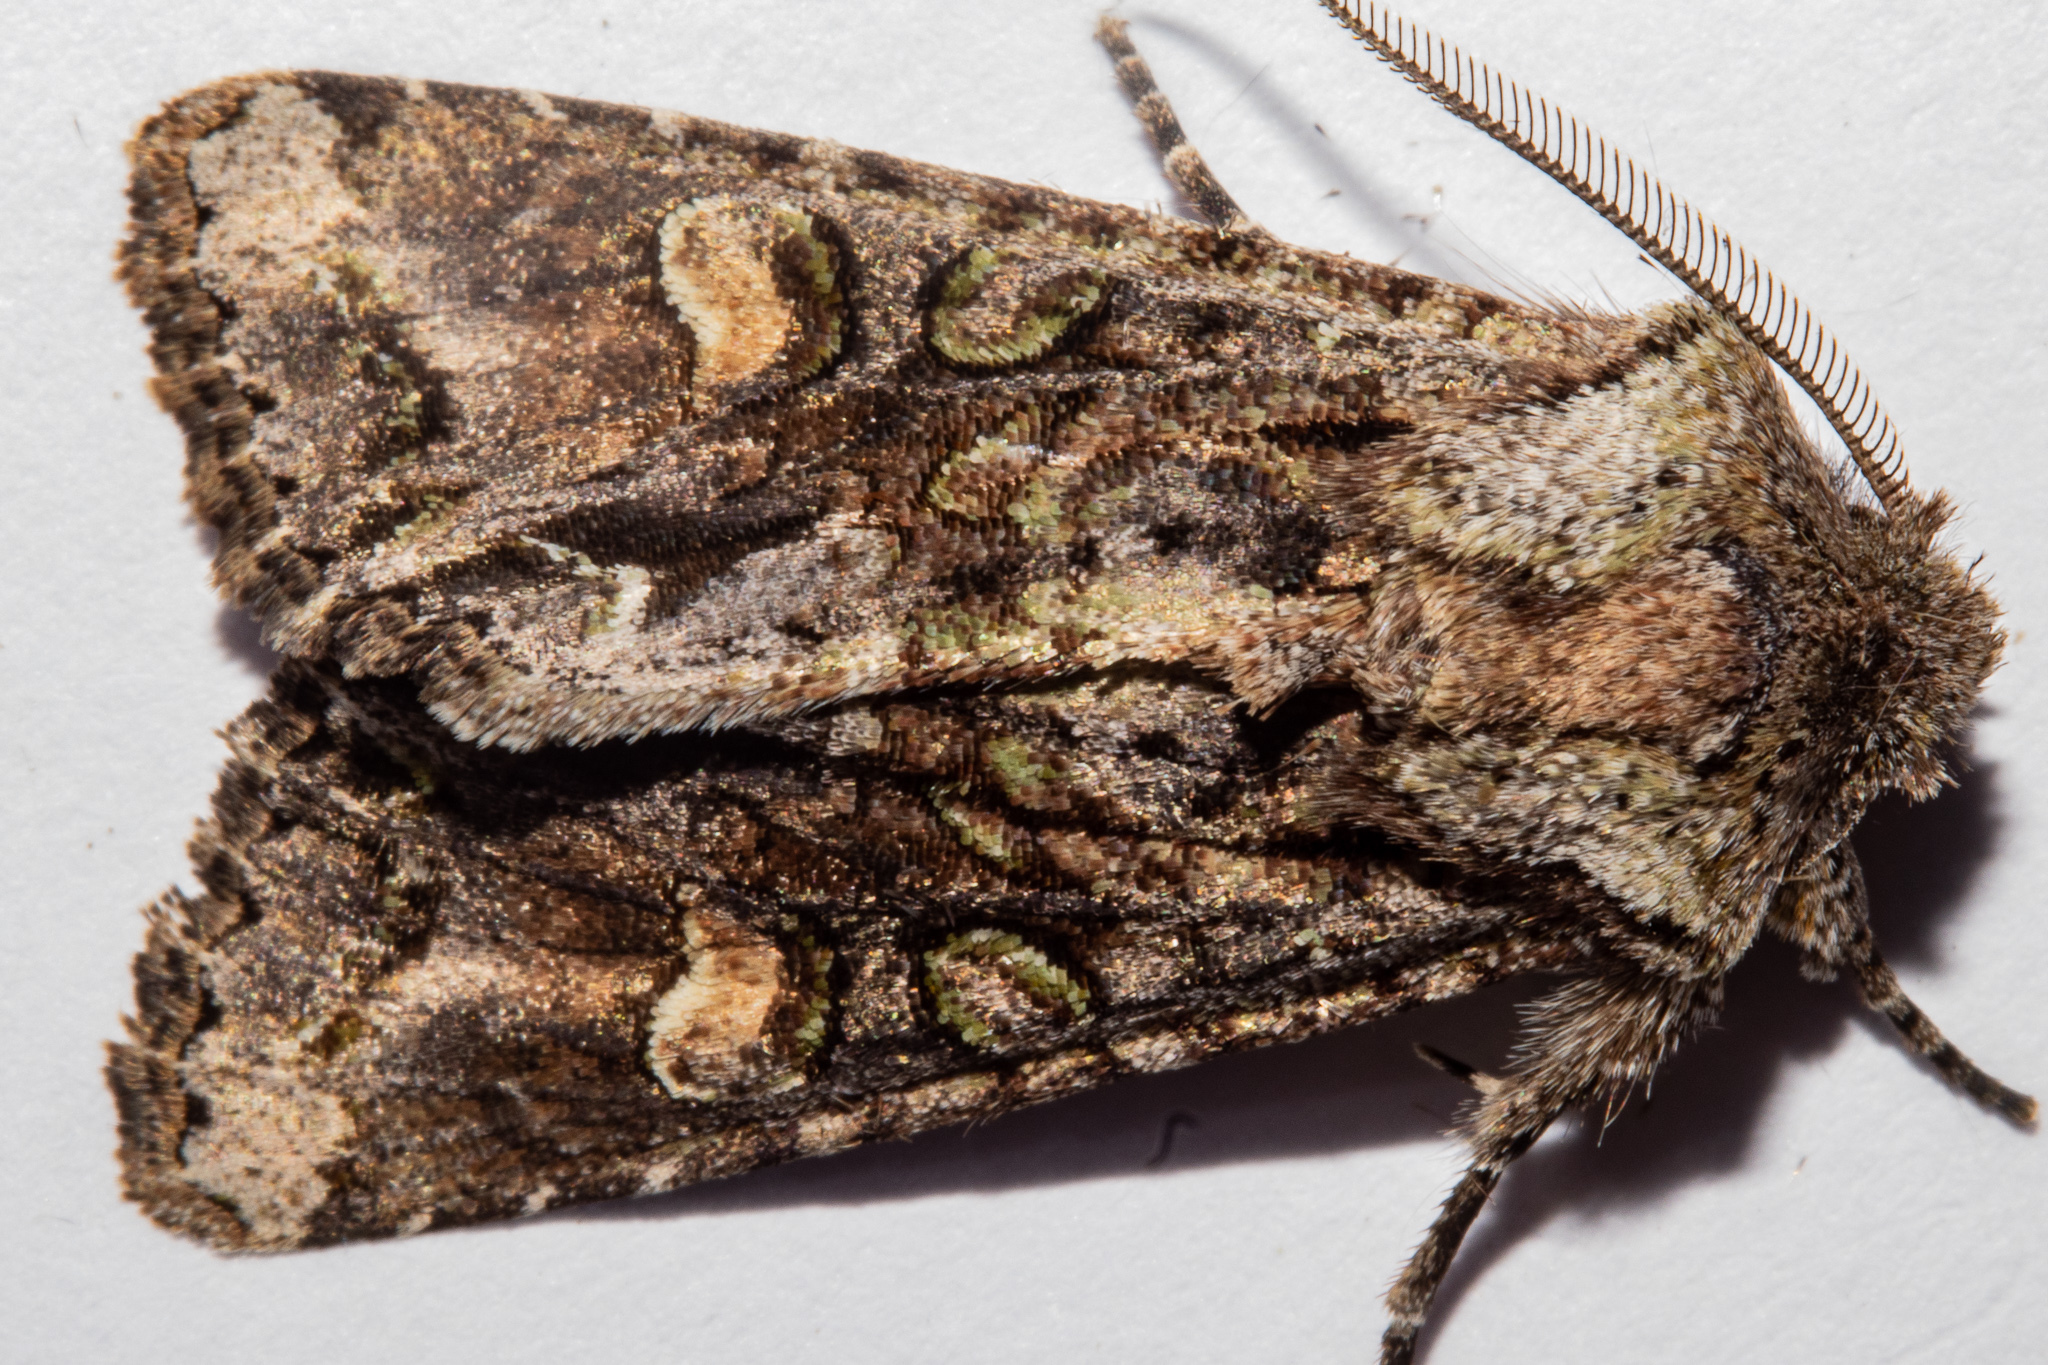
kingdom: Animalia
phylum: Arthropoda
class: Insecta
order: Lepidoptera
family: Noctuidae
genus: Ichneutica
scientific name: Ichneutica
